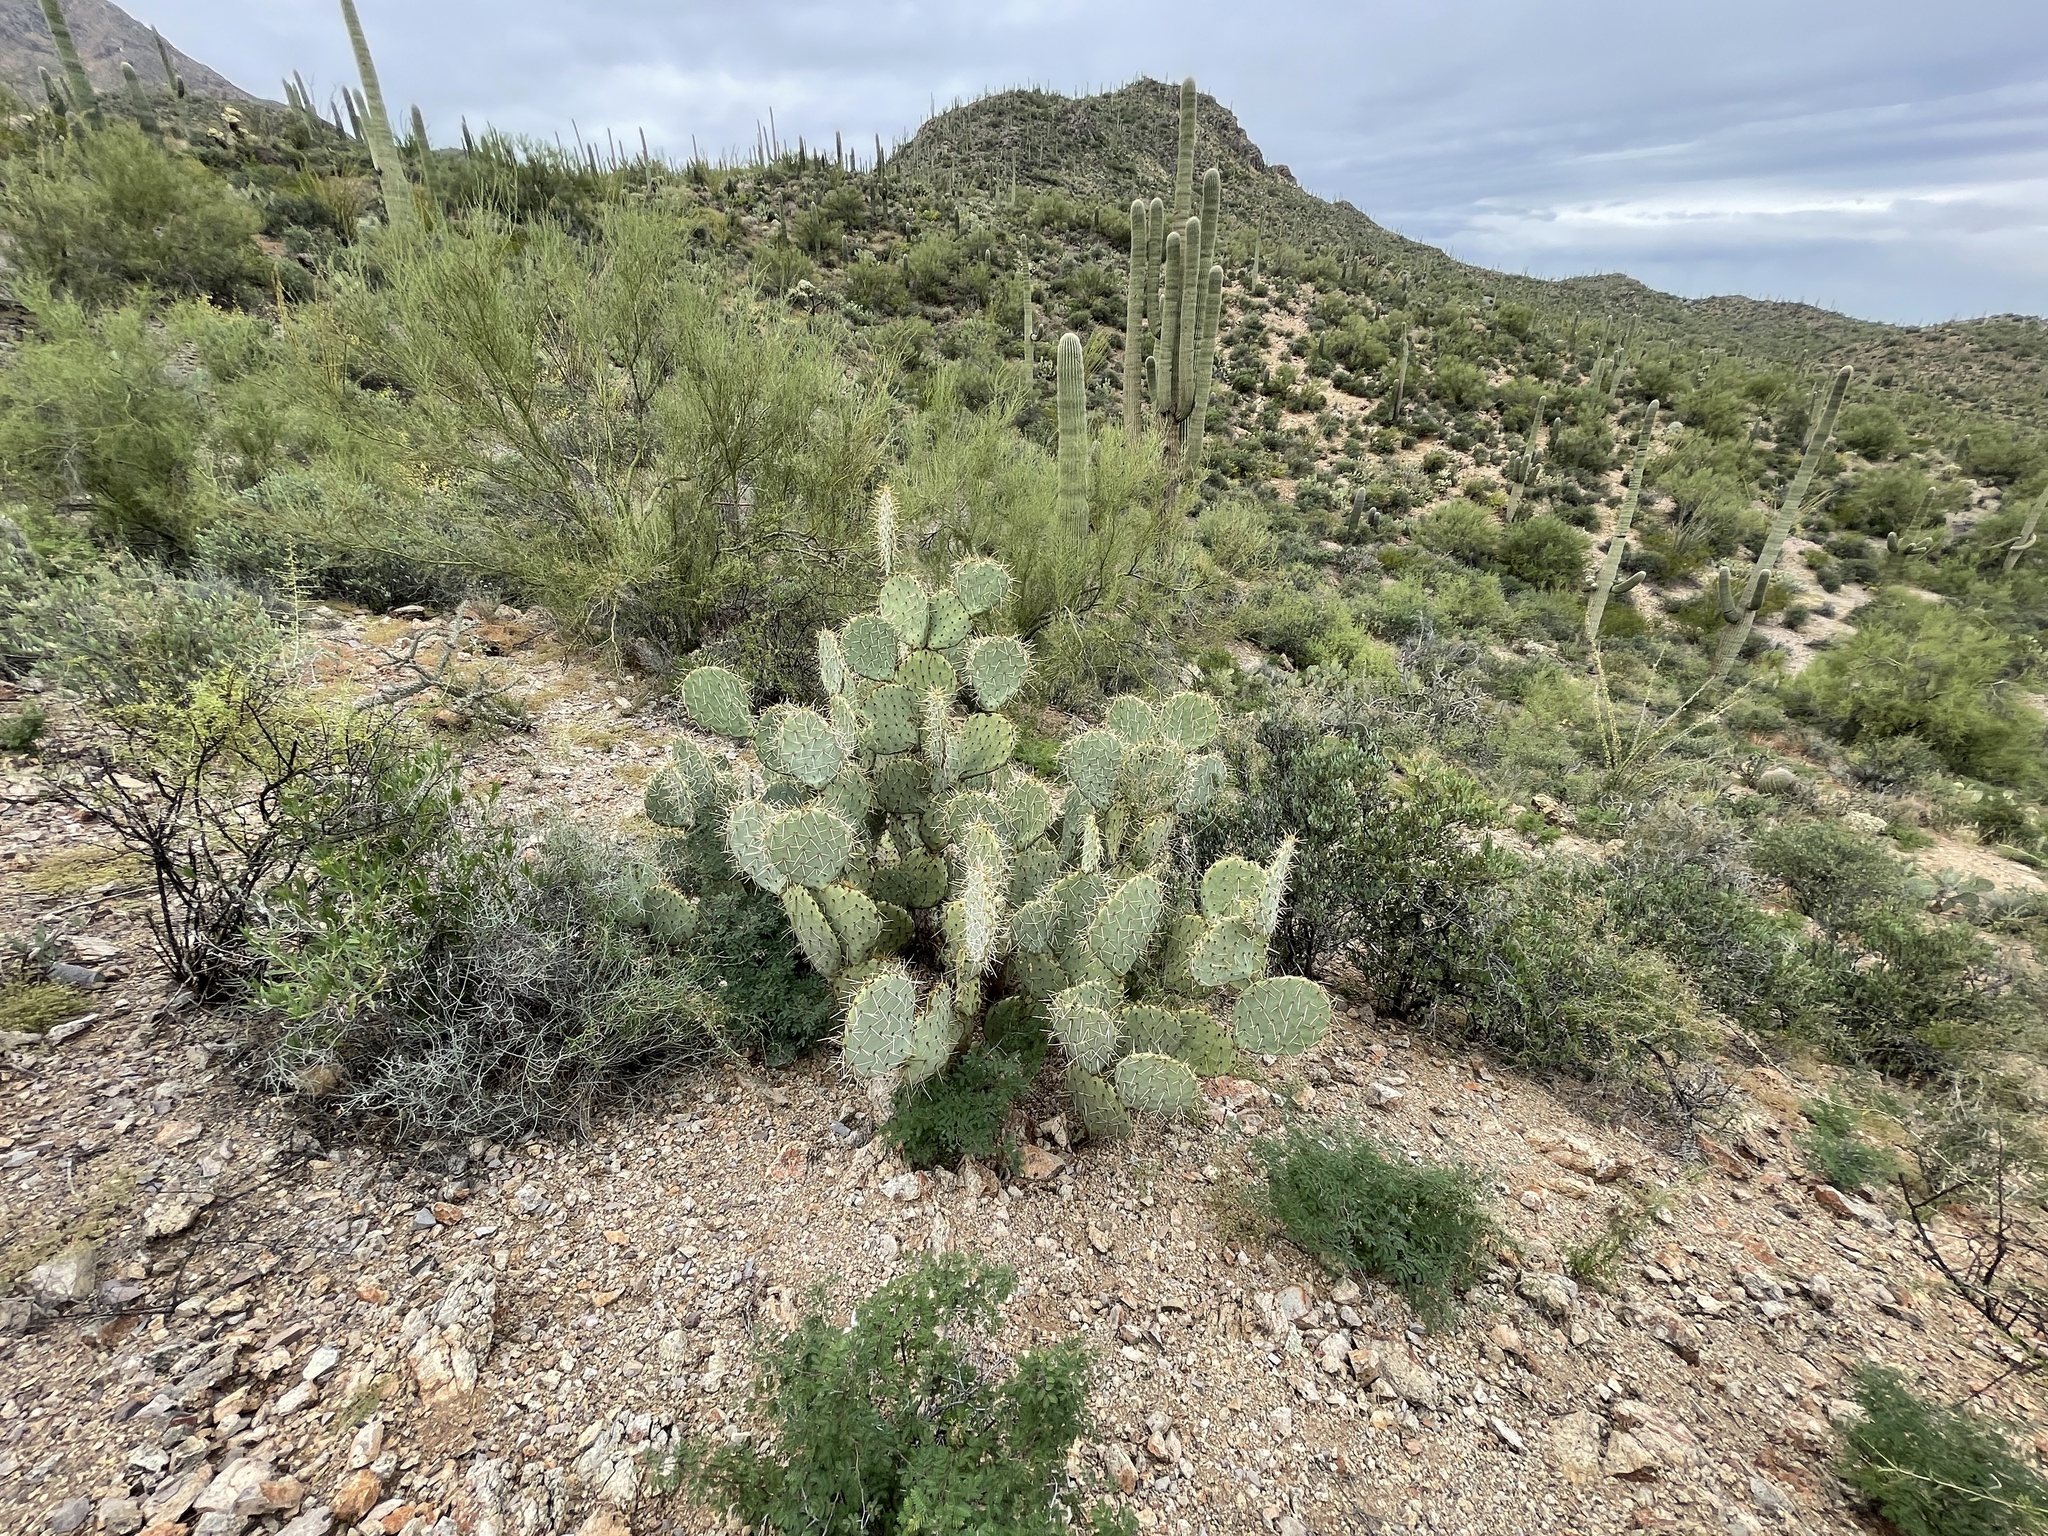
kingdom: Plantae
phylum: Tracheophyta
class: Magnoliopsida
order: Caryophyllales
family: Cactaceae
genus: Opuntia
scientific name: Opuntia phaeacantha
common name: New mexico prickly-pear
